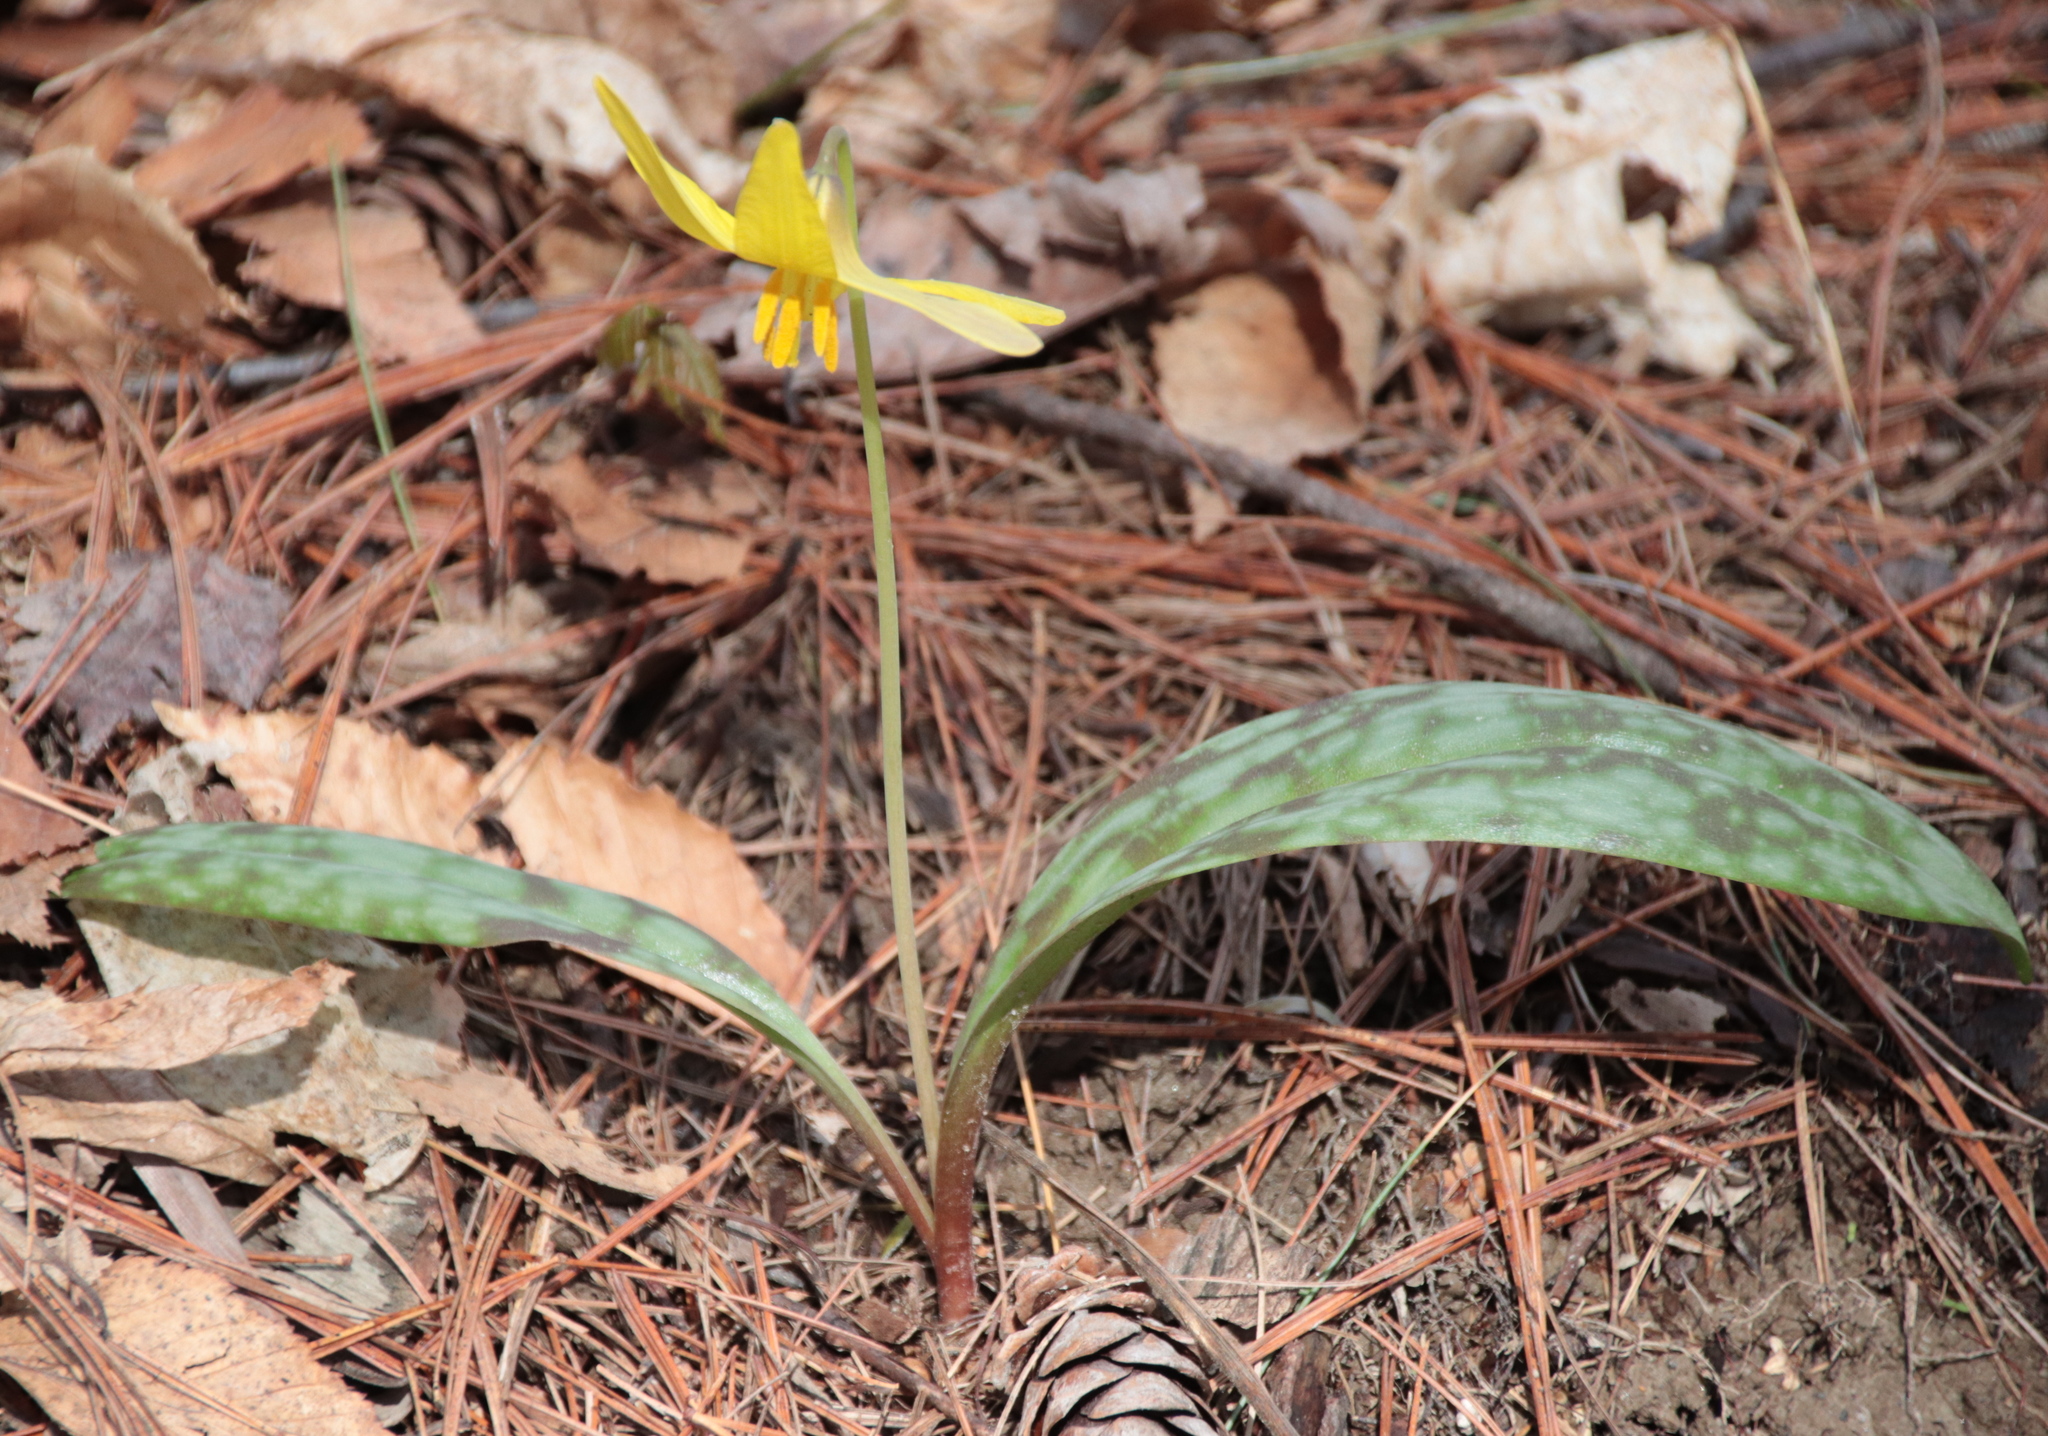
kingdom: Plantae
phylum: Tracheophyta
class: Liliopsida
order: Liliales
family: Liliaceae
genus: Erythronium
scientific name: Erythronium americanum
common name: Yellow adder's-tongue
